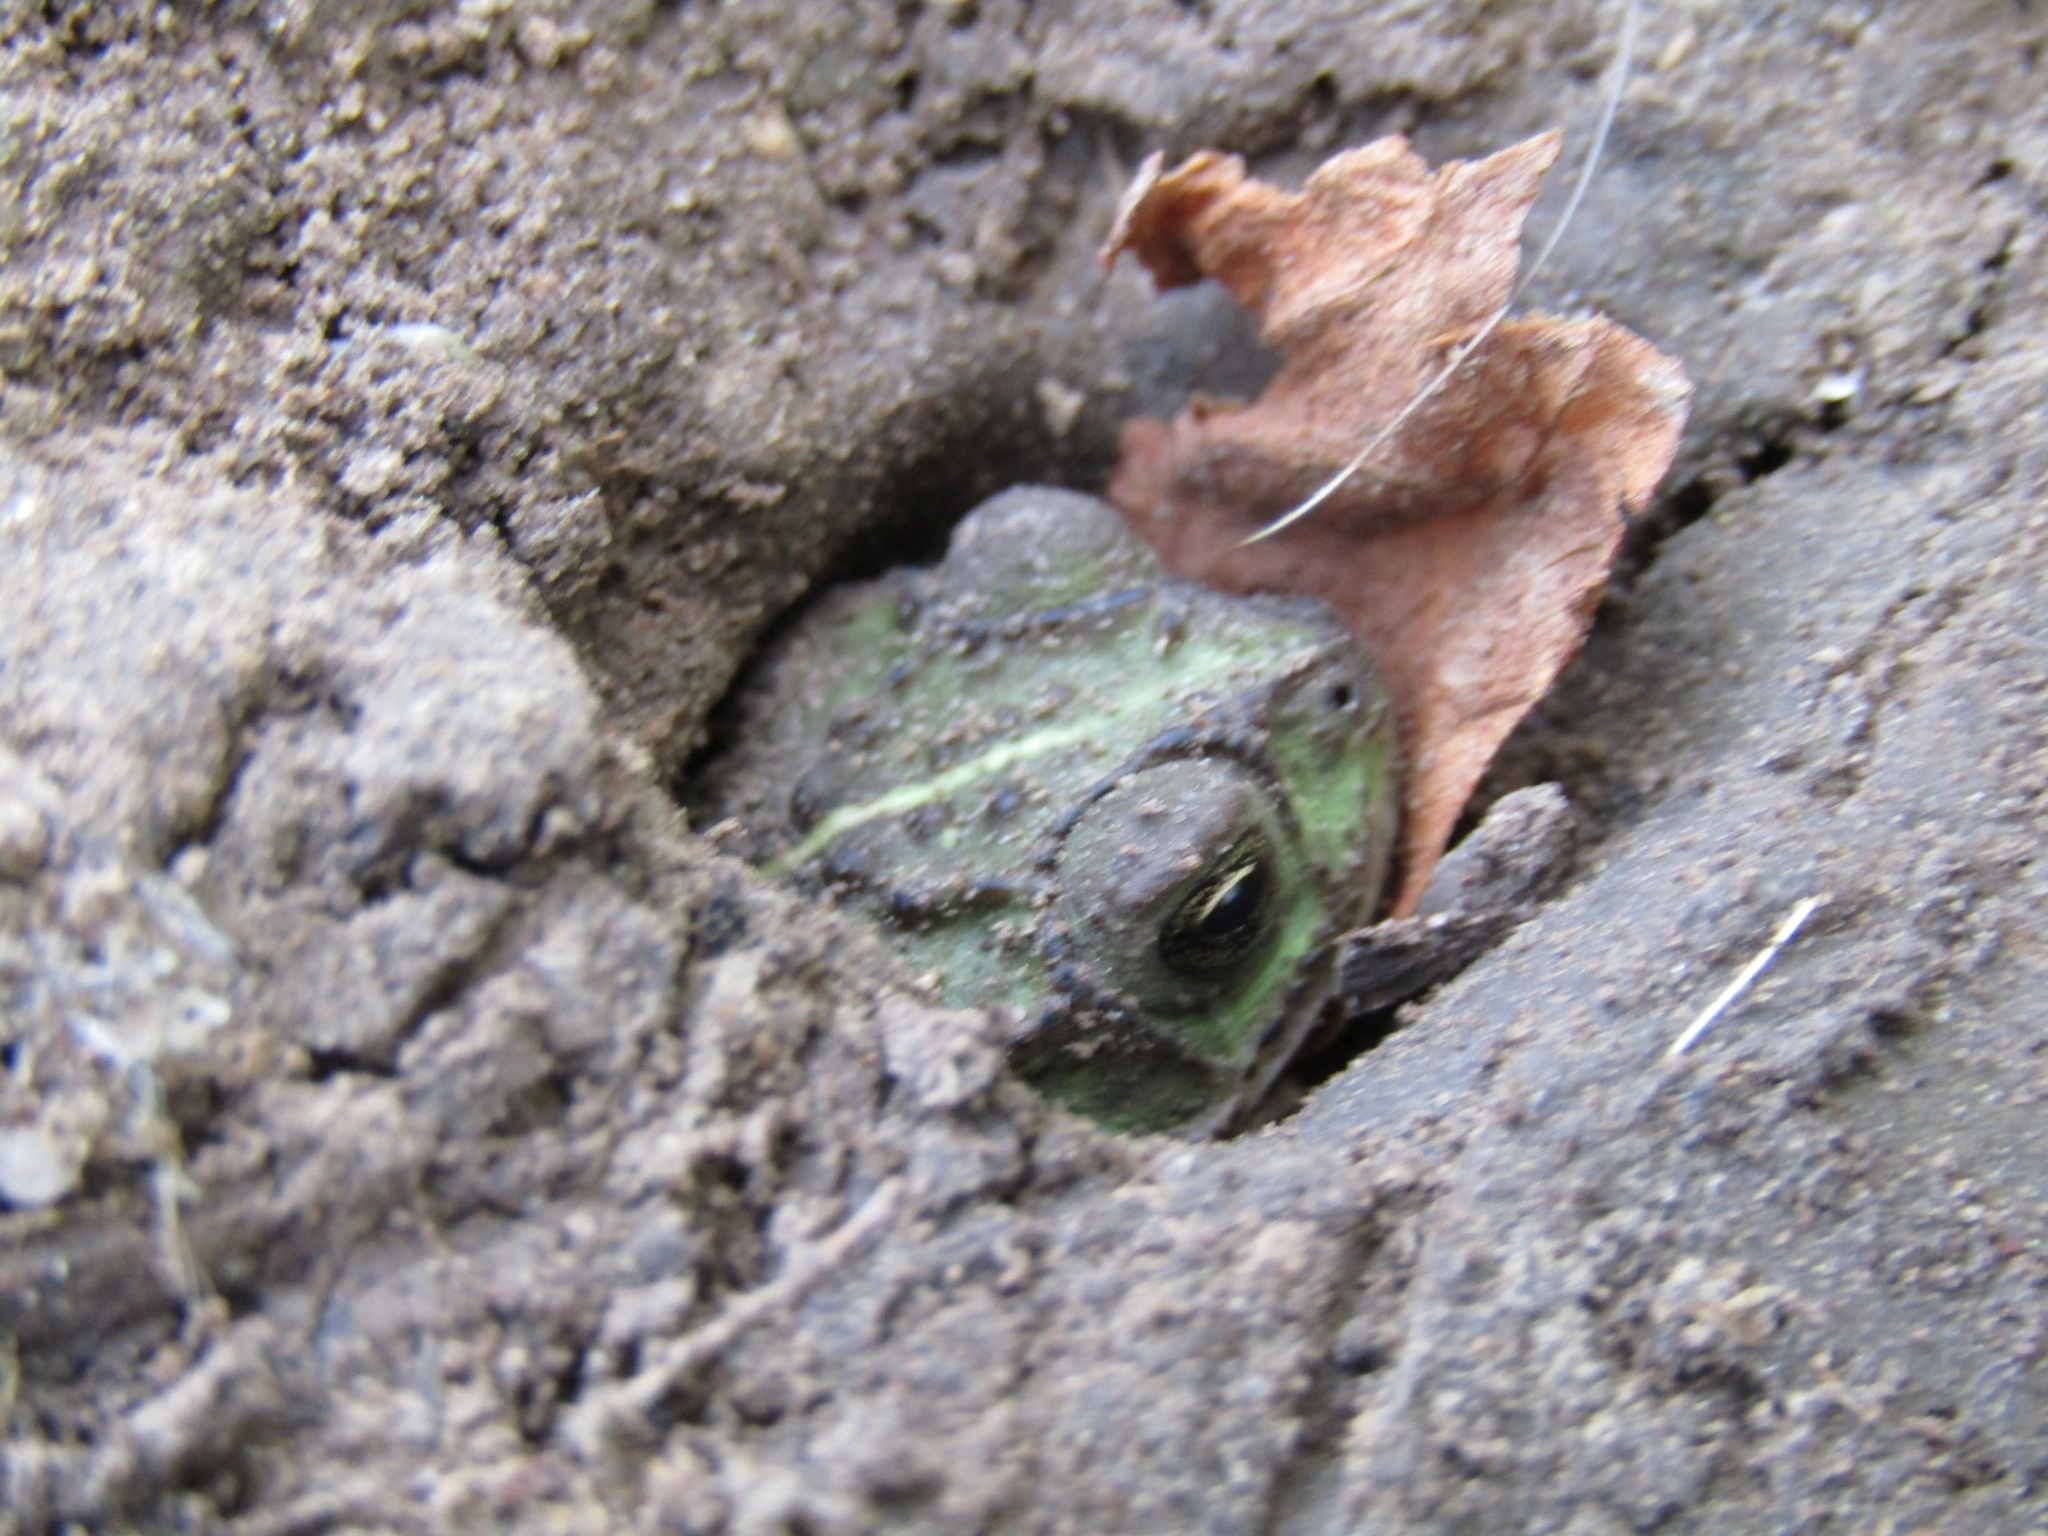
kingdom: Animalia
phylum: Chordata
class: Amphibia
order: Anura
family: Bufonidae
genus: Rhinella
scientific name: Rhinella dorbignyi
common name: D´orbigny’s toad
